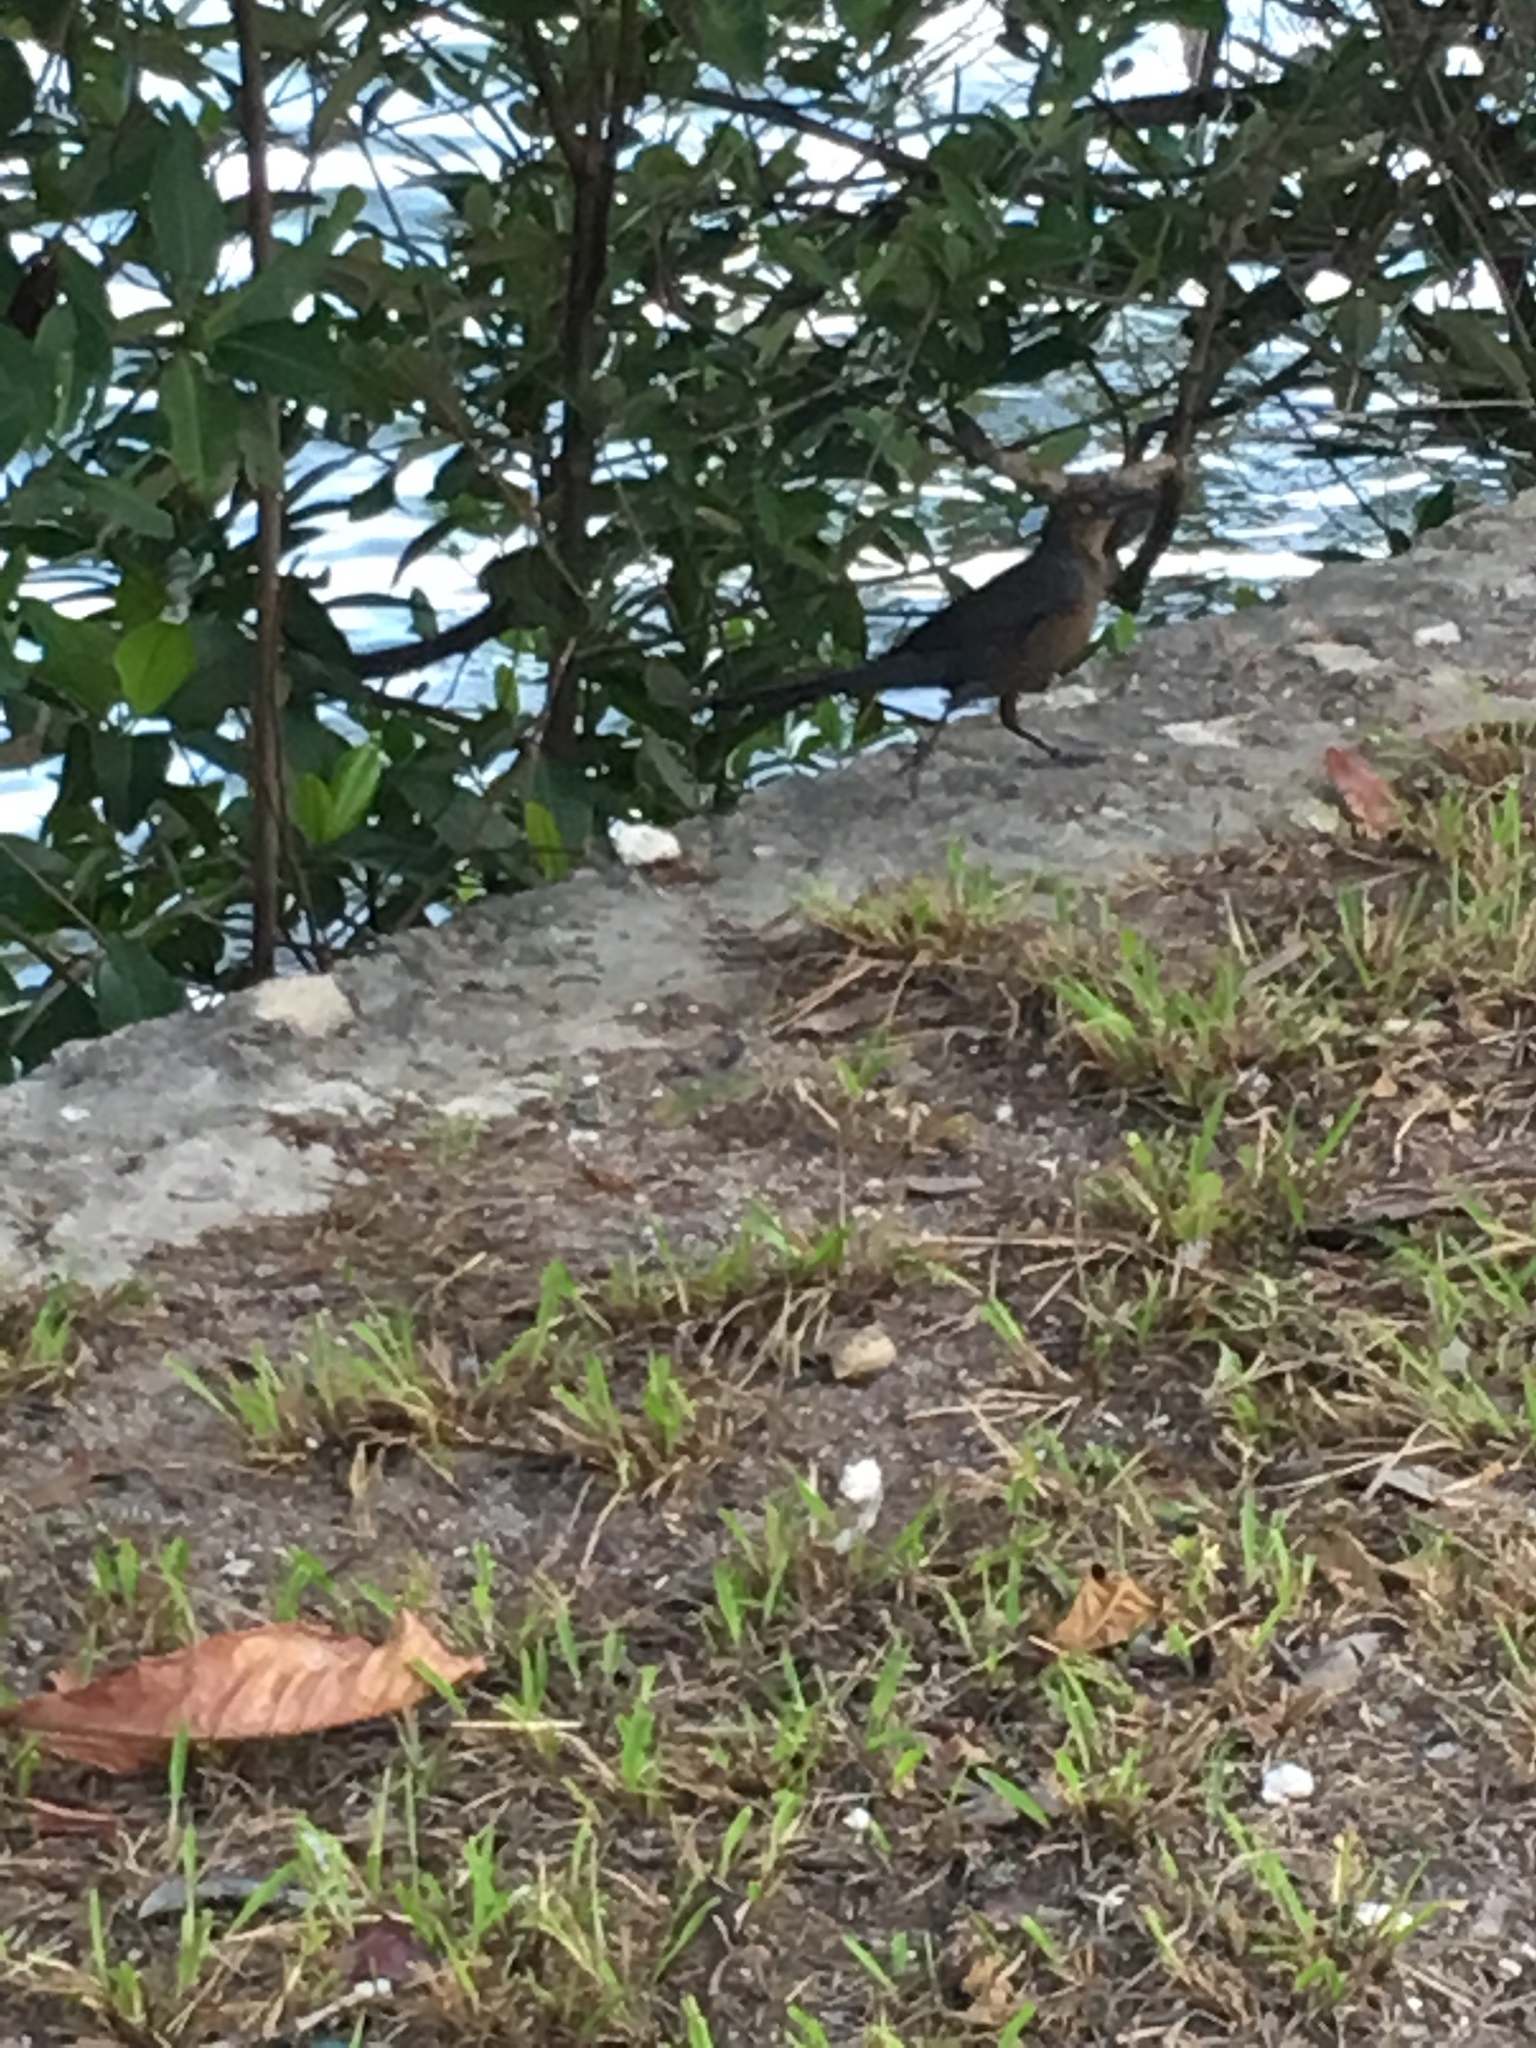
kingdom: Animalia
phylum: Chordata
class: Aves
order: Passeriformes
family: Icteridae
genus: Quiscalus
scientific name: Quiscalus mexicanus
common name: Great-tailed grackle
